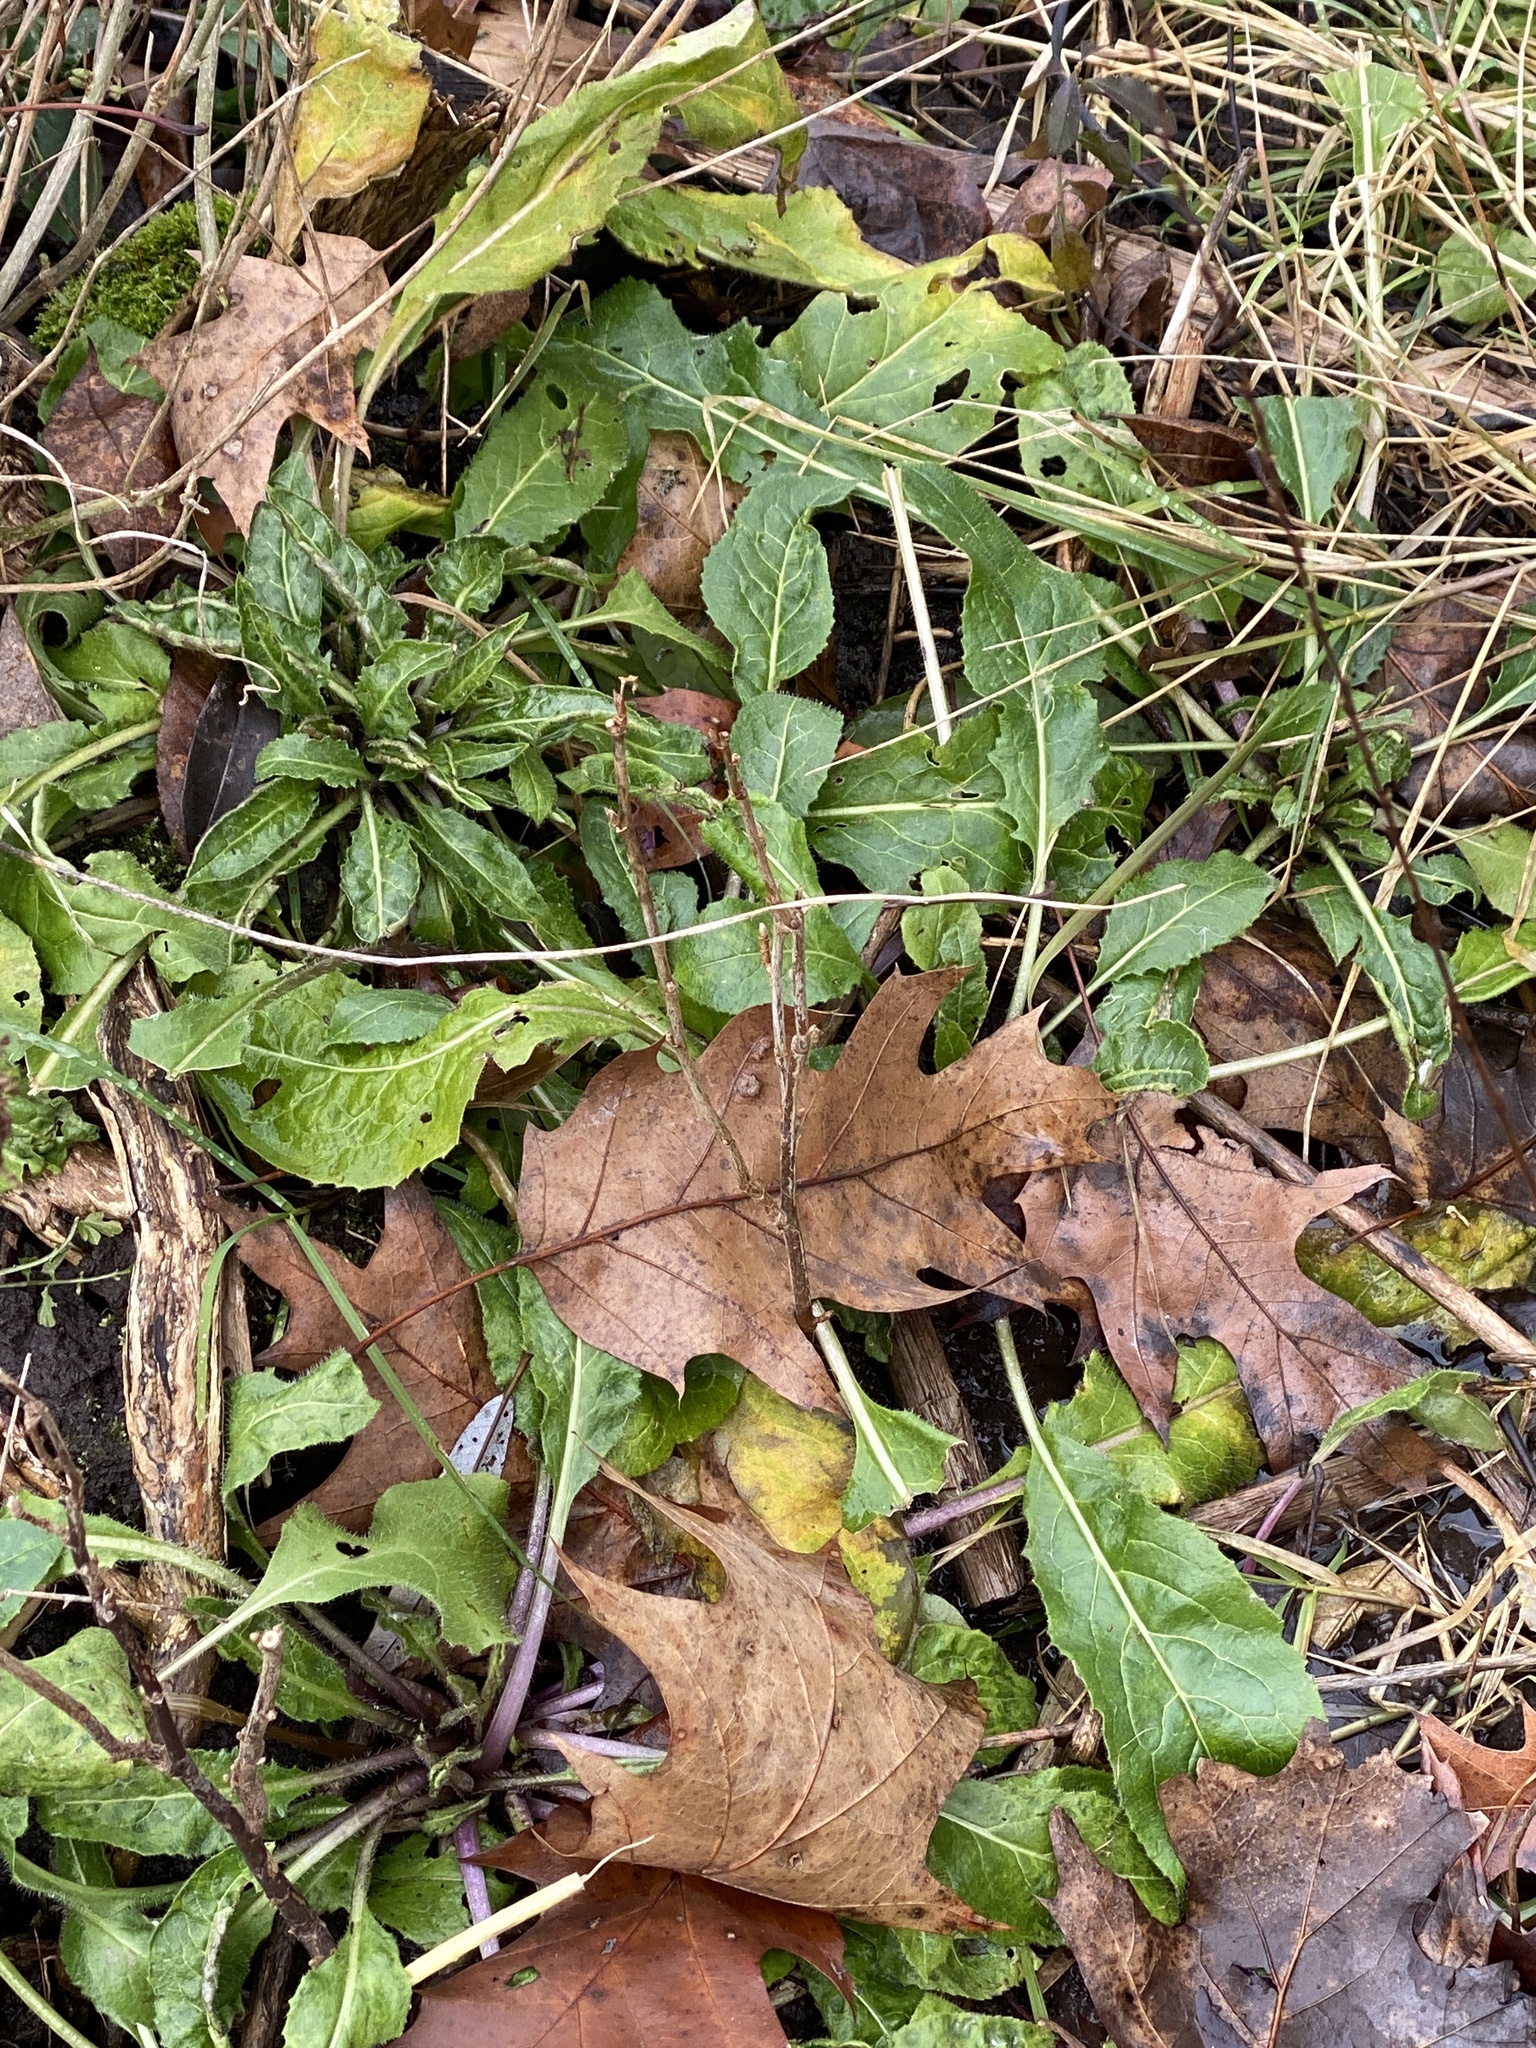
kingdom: Plantae
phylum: Tracheophyta
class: Magnoliopsida
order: Brassicales
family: Brassicaceae
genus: Hesperis
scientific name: Hesperis matronalis
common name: Dame's-violet
